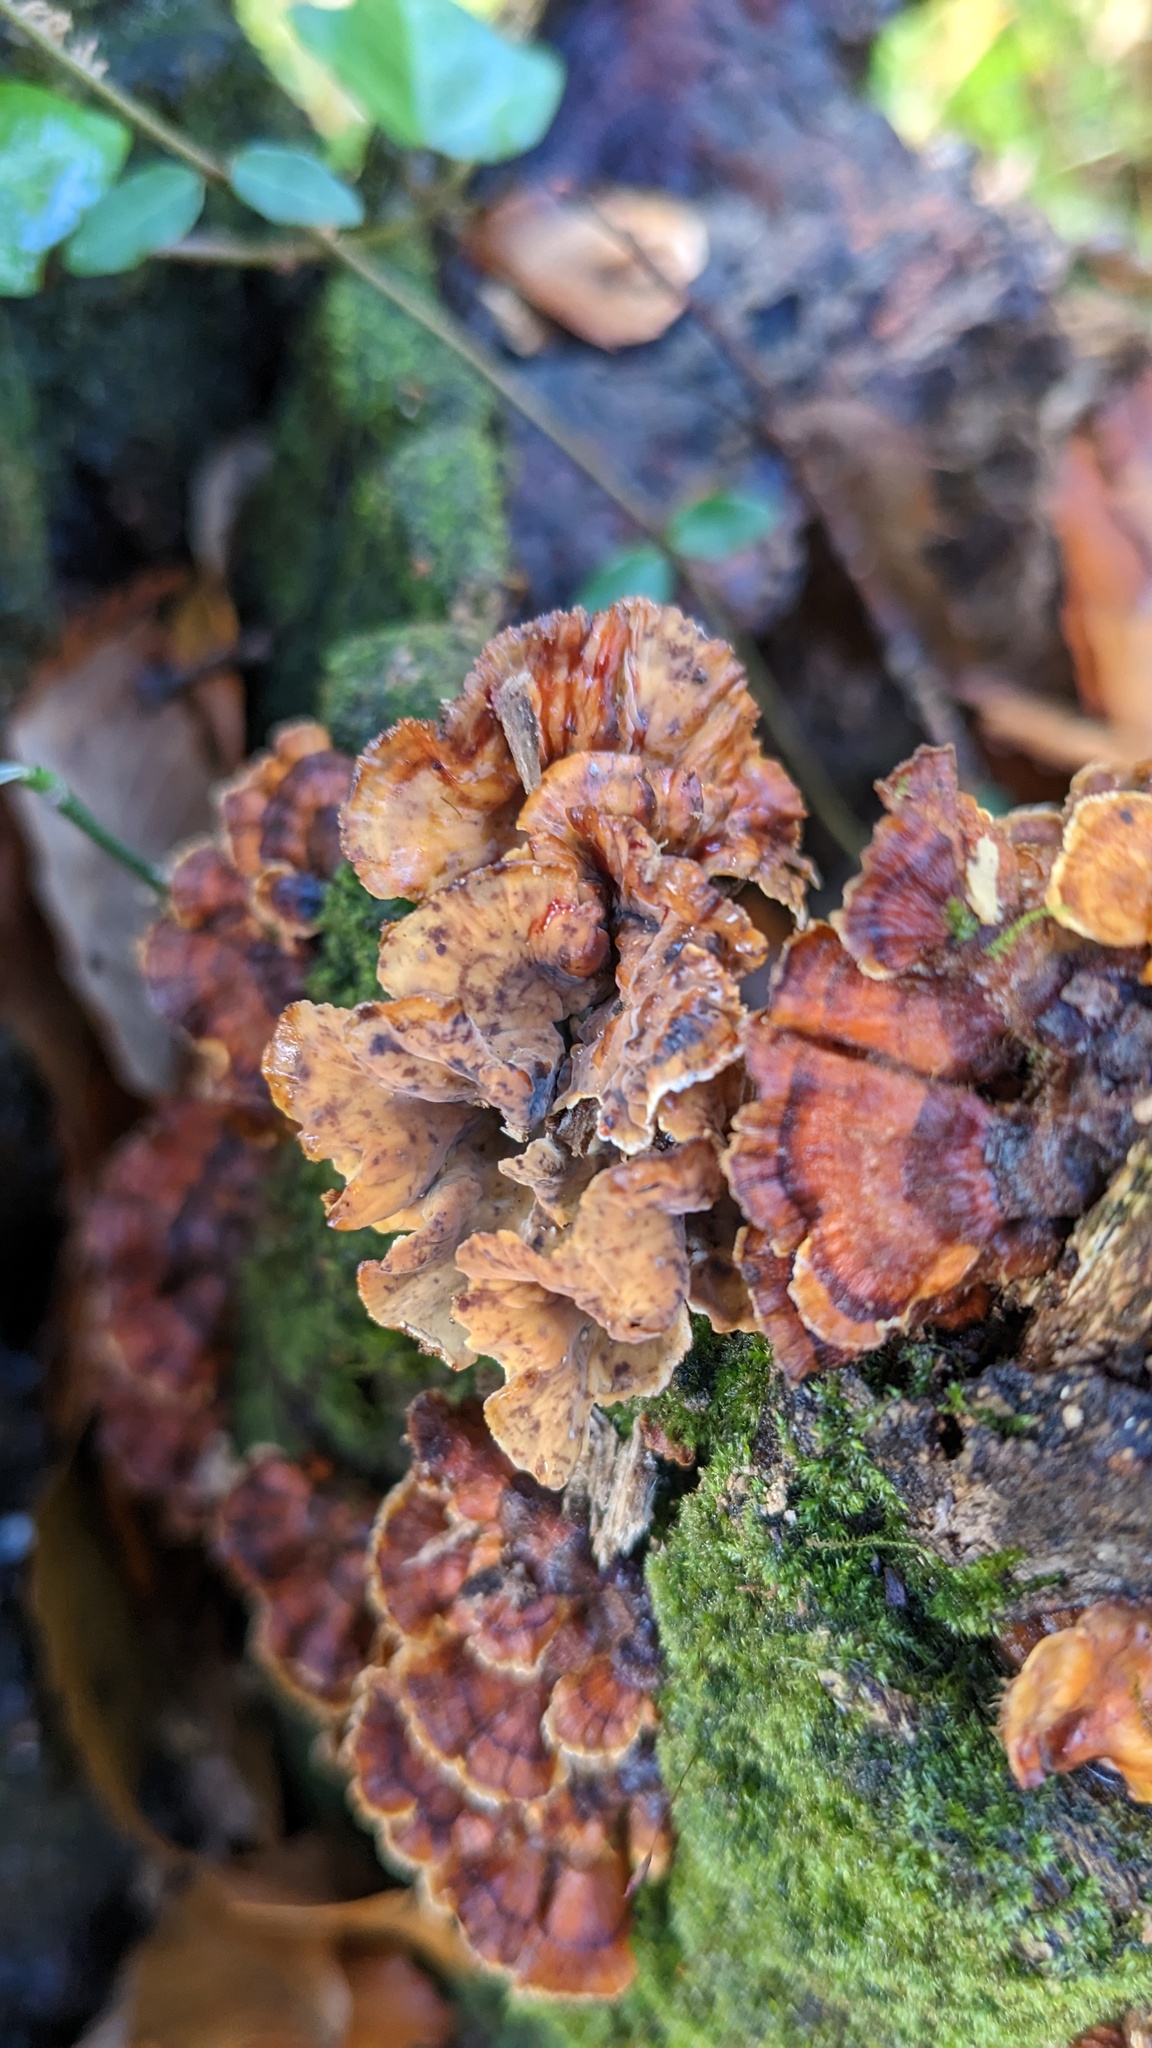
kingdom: Fungi
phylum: Basidiomycota
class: Agaricomycetes
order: Russulales
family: Stereaceae
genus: Stereum
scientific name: Stereum gausapatum
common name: Bleeding oak crust
